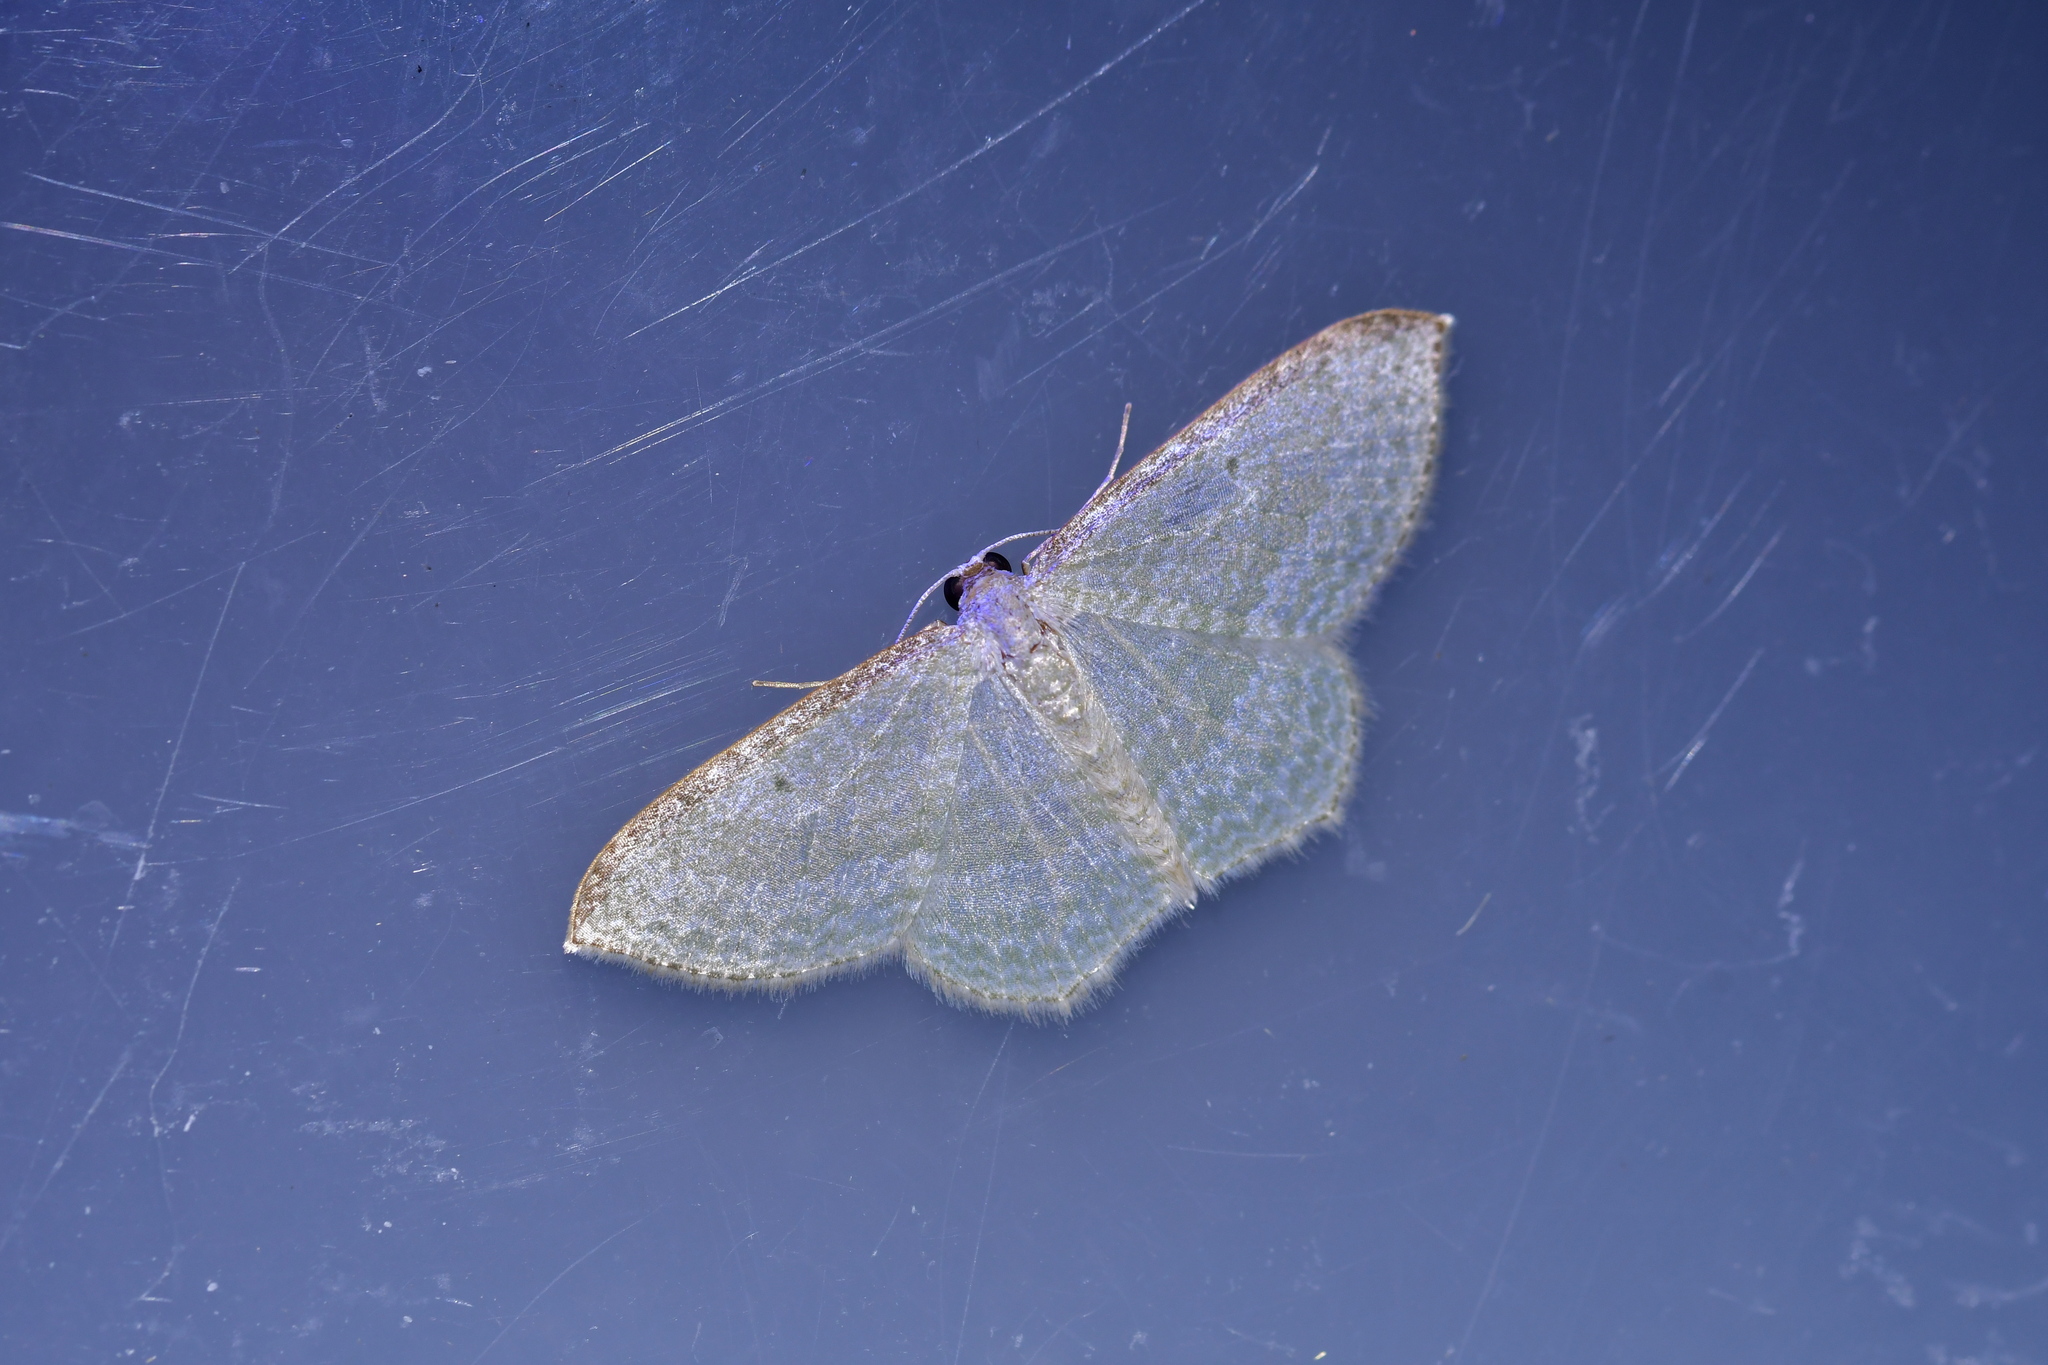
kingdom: Animalia
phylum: Arthropoda
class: Insecta
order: Lepidoptera
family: Geometridae
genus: Poecilasthena
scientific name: Poecilasthena pulchraria
